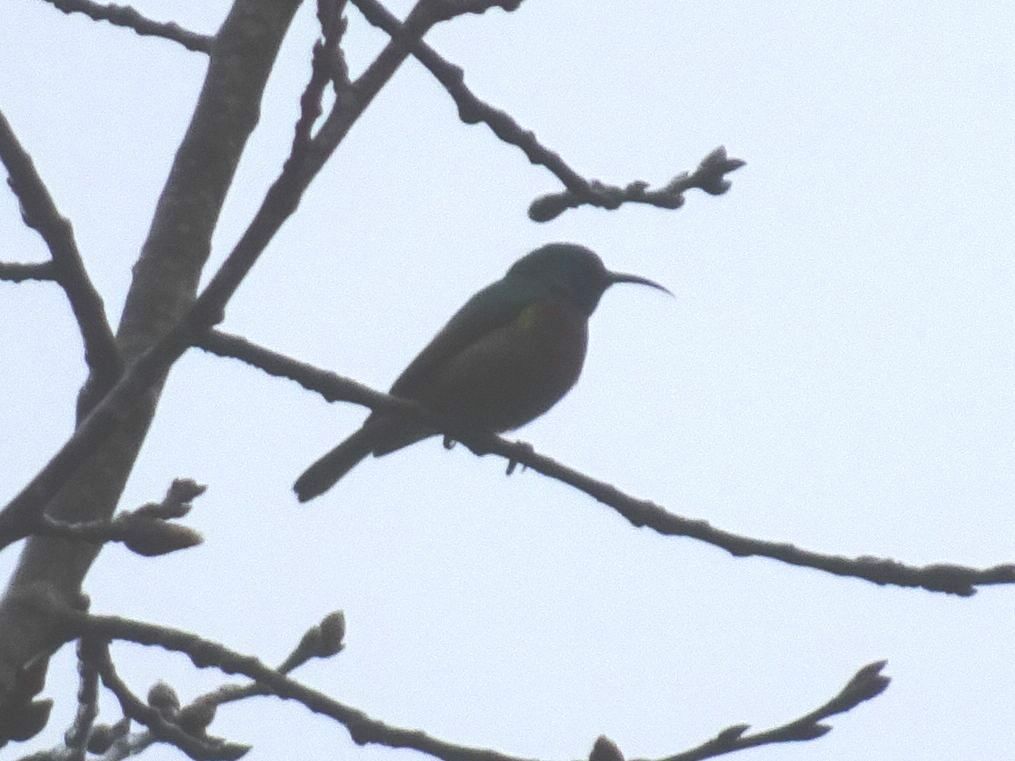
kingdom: Animalia
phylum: Chordata
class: Aves
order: Passeriformes
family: Nectariniidae
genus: Cinnyris
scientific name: Cinnyris chalybeus
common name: Southern double-collared sunbird
